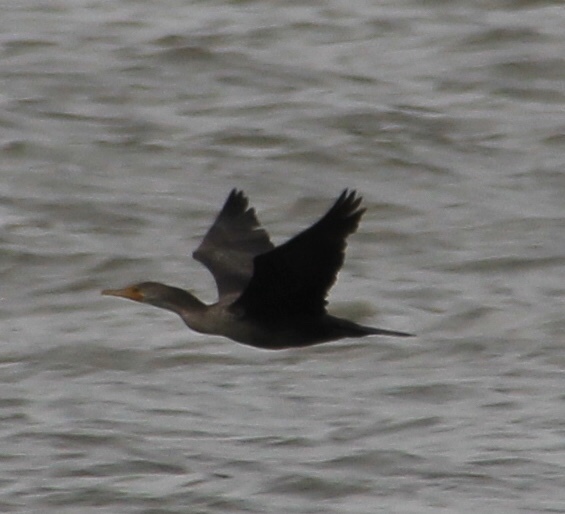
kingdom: Animalia
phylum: Chordata
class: Aves
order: Suliformes
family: Phalacrocoracidae
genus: Phalacrocorax
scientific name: Phalacrocorax auritus
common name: Double-crested cormorant
